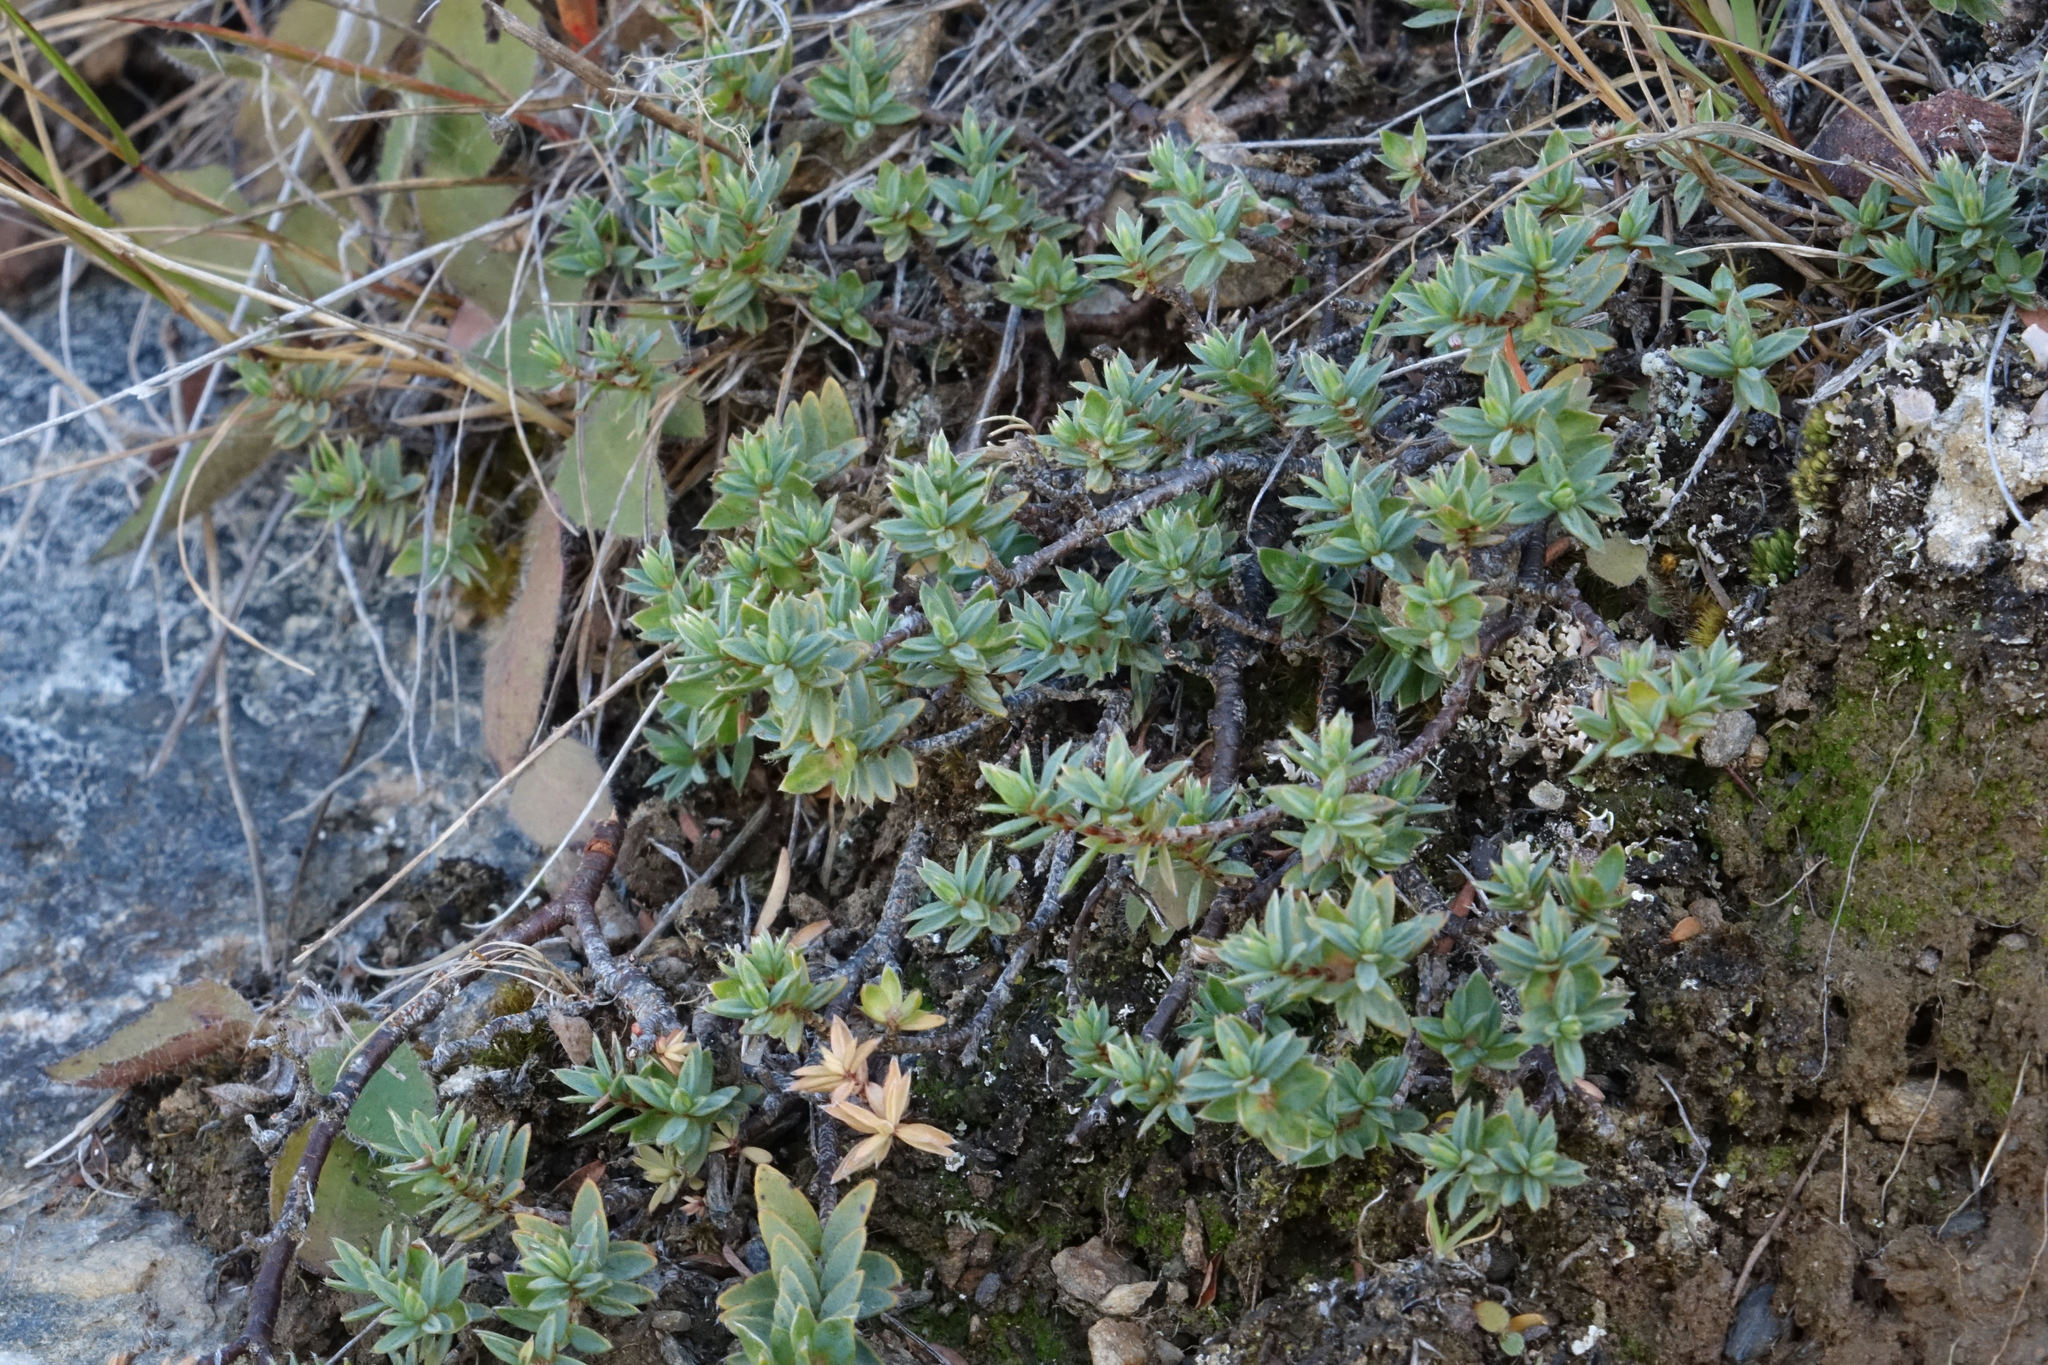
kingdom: Plantae
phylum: Tracheophyta
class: Magnoliopsida
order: Malvales
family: Thymelaeaceae
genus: Pimelea
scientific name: Pimelea oreophila
